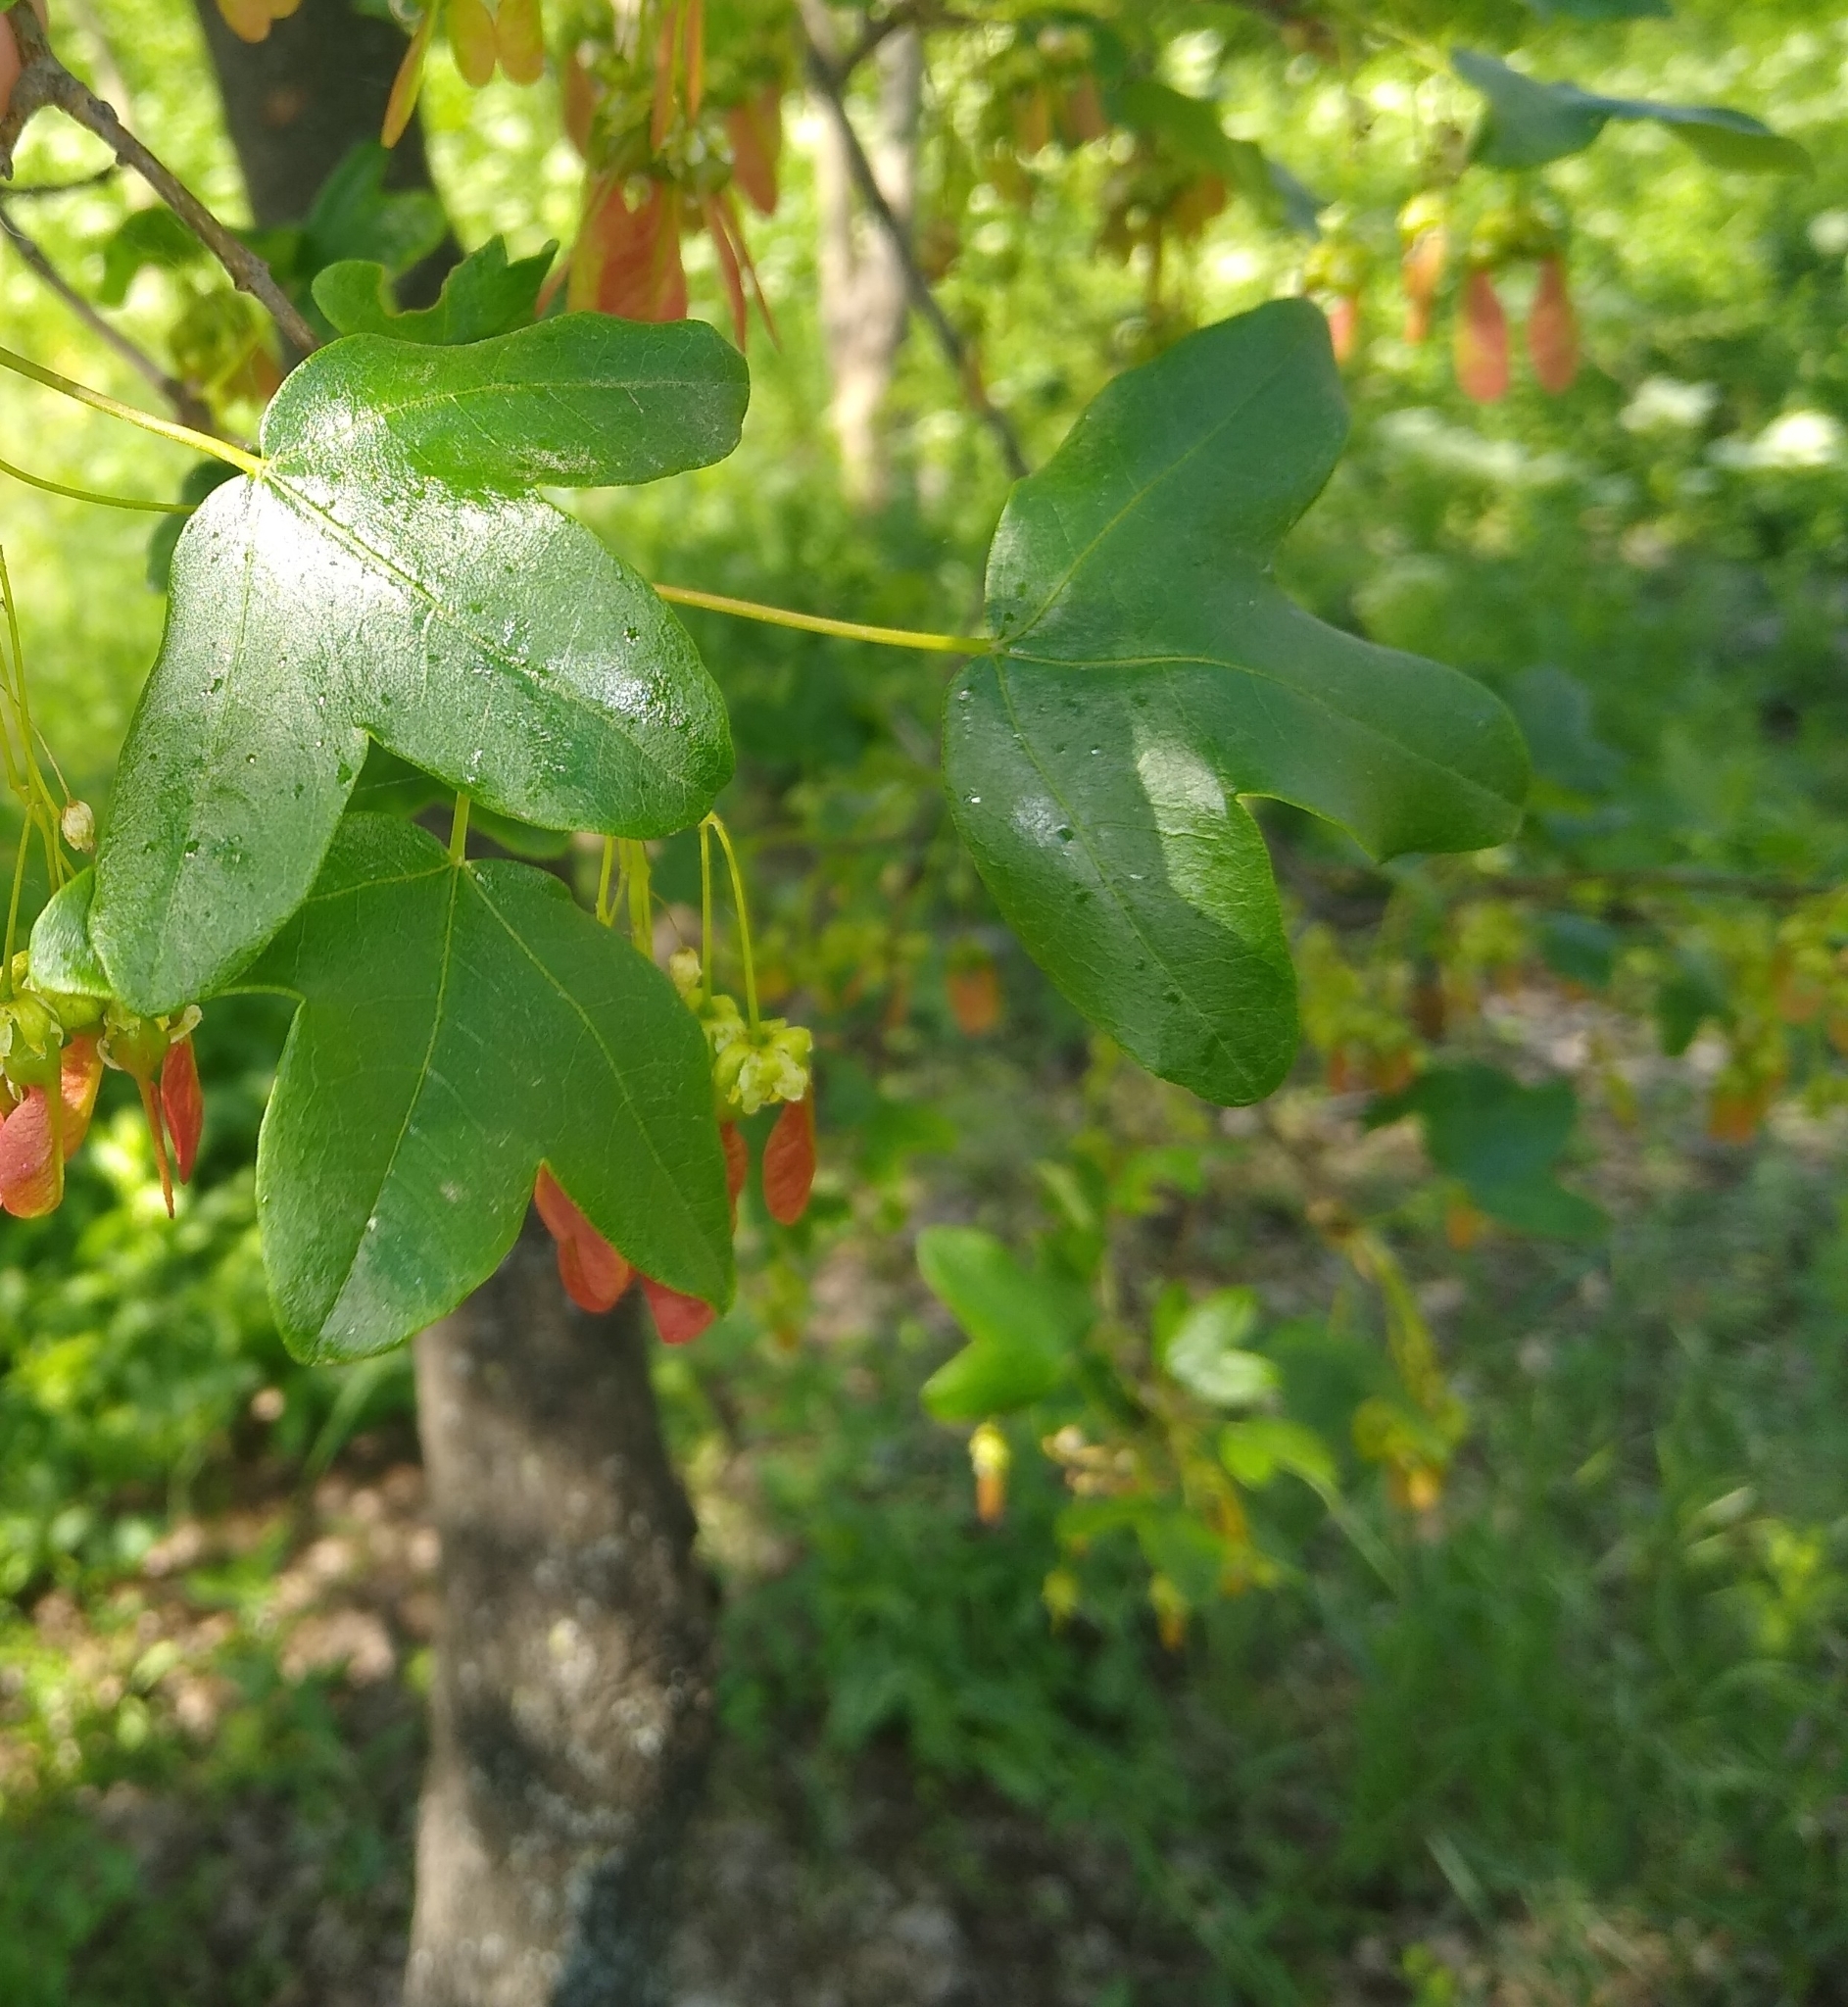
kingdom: Plantae
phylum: Tracheophyta
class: Magnoliopsida
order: Sapindales
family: Sapindaceae
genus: Acer
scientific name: Acer monspessulanum
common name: Montpellier maple
